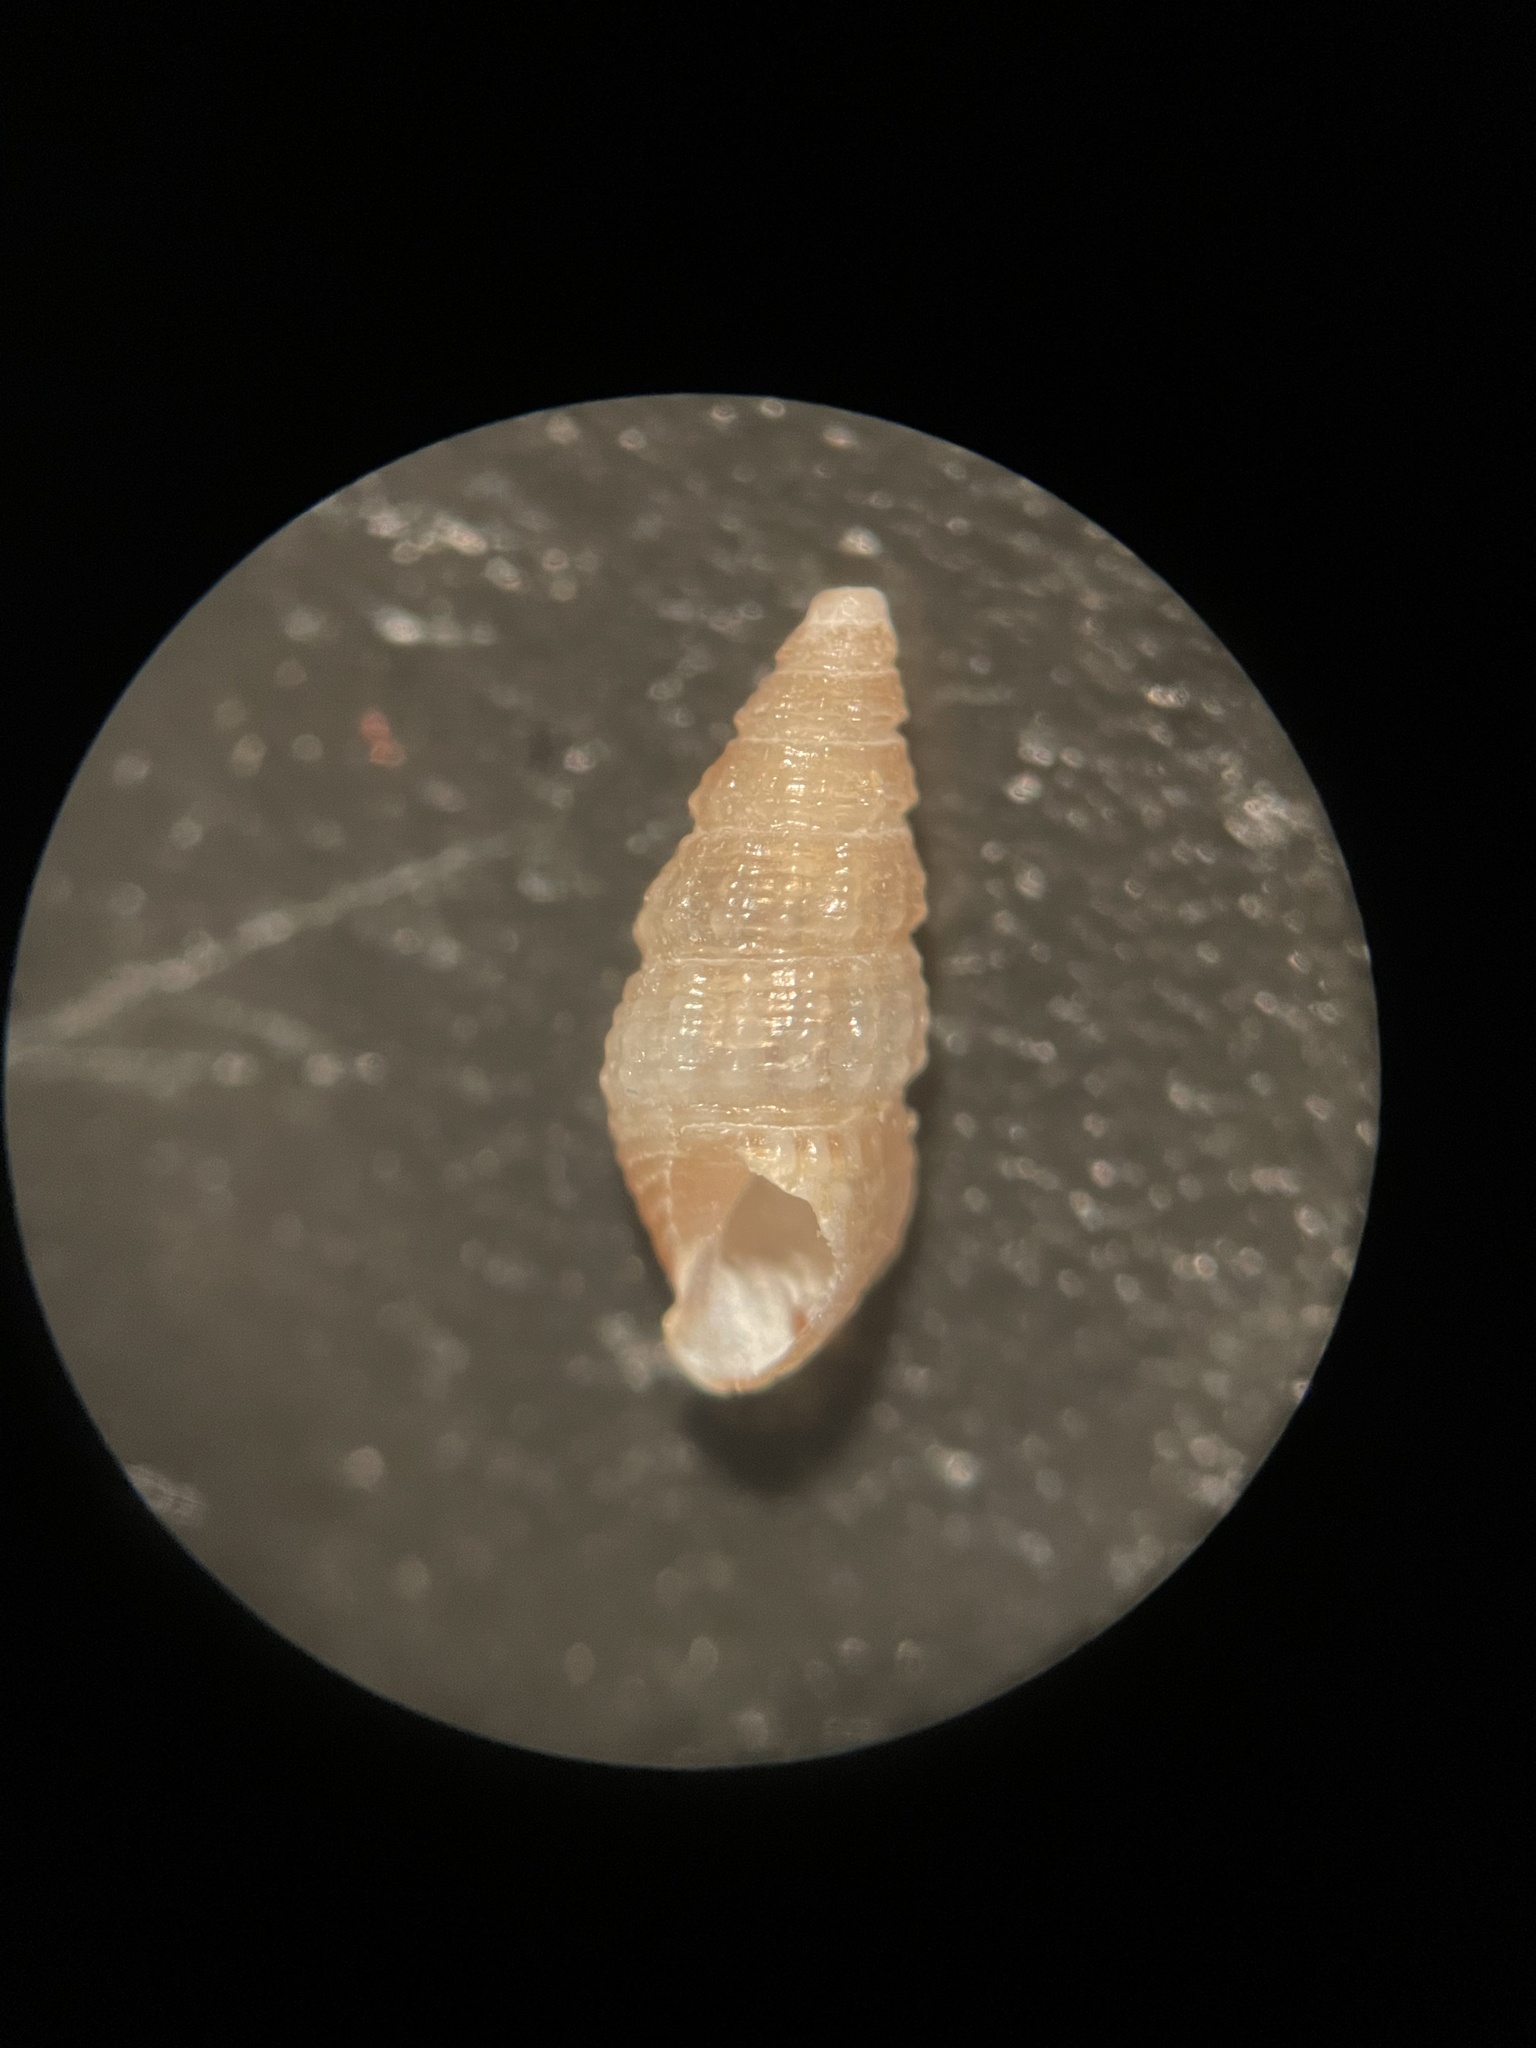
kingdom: Animalia
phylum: Mollusca
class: Gastropoda
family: Cerithiidae
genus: Bittiolum
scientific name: Bittiolum varium
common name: Grass cerith
